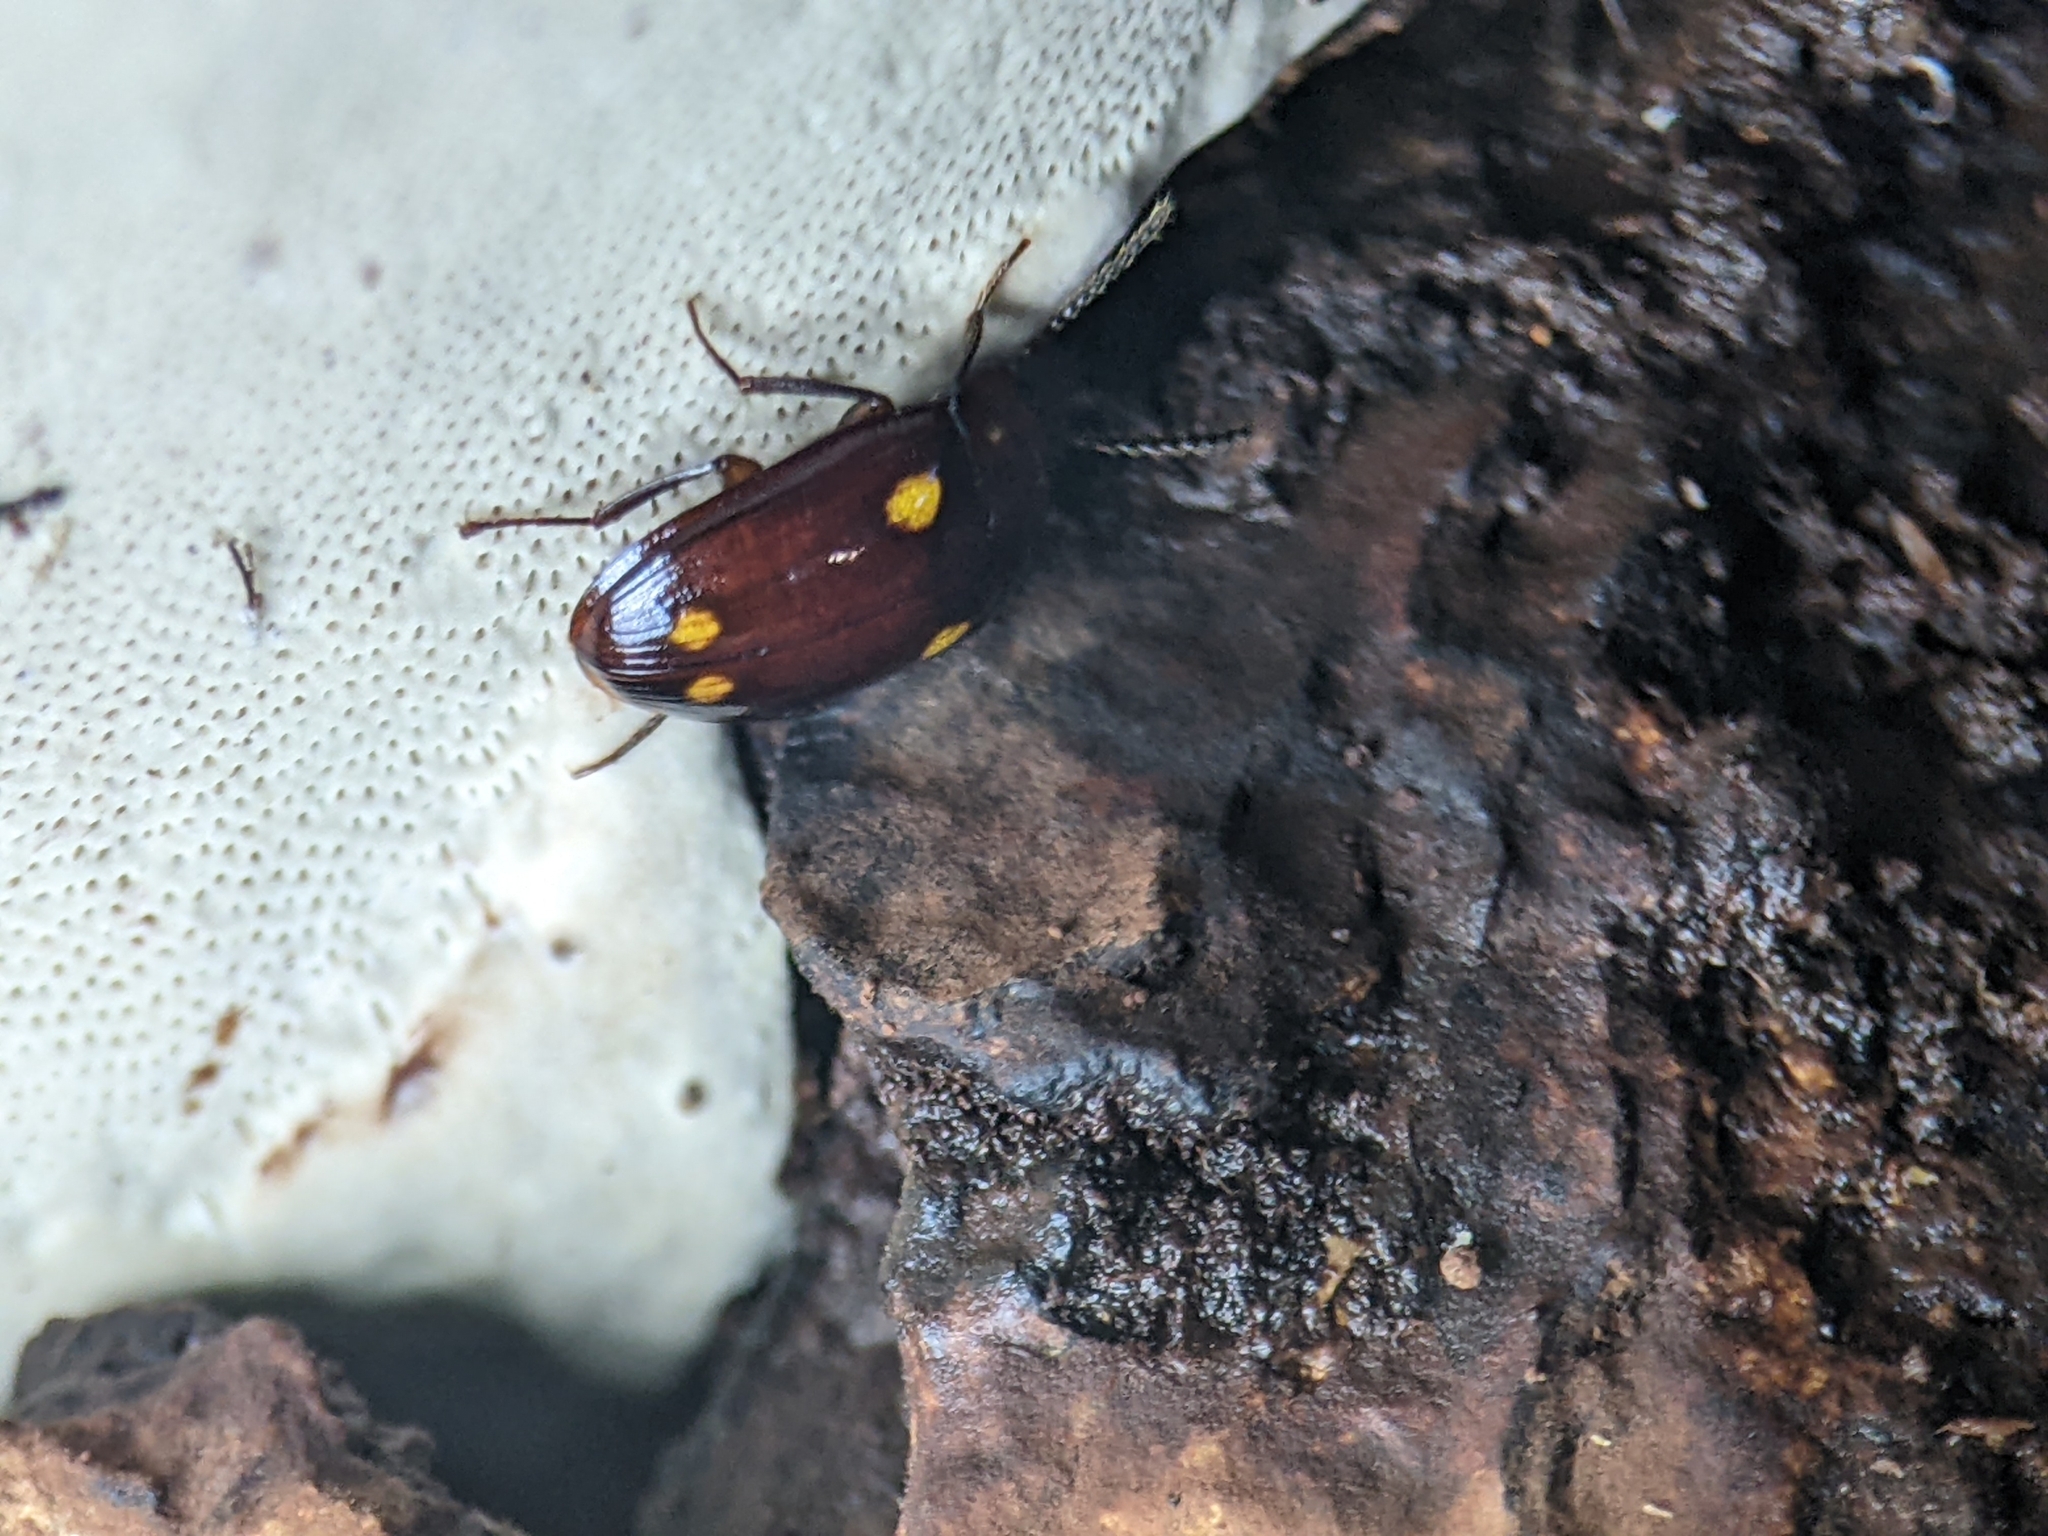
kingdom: Animalia
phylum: Arthropoda
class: Insecta
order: Coleoptera
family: Tenebrionidae
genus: Ischnodactylus
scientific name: Ischnodactylus
